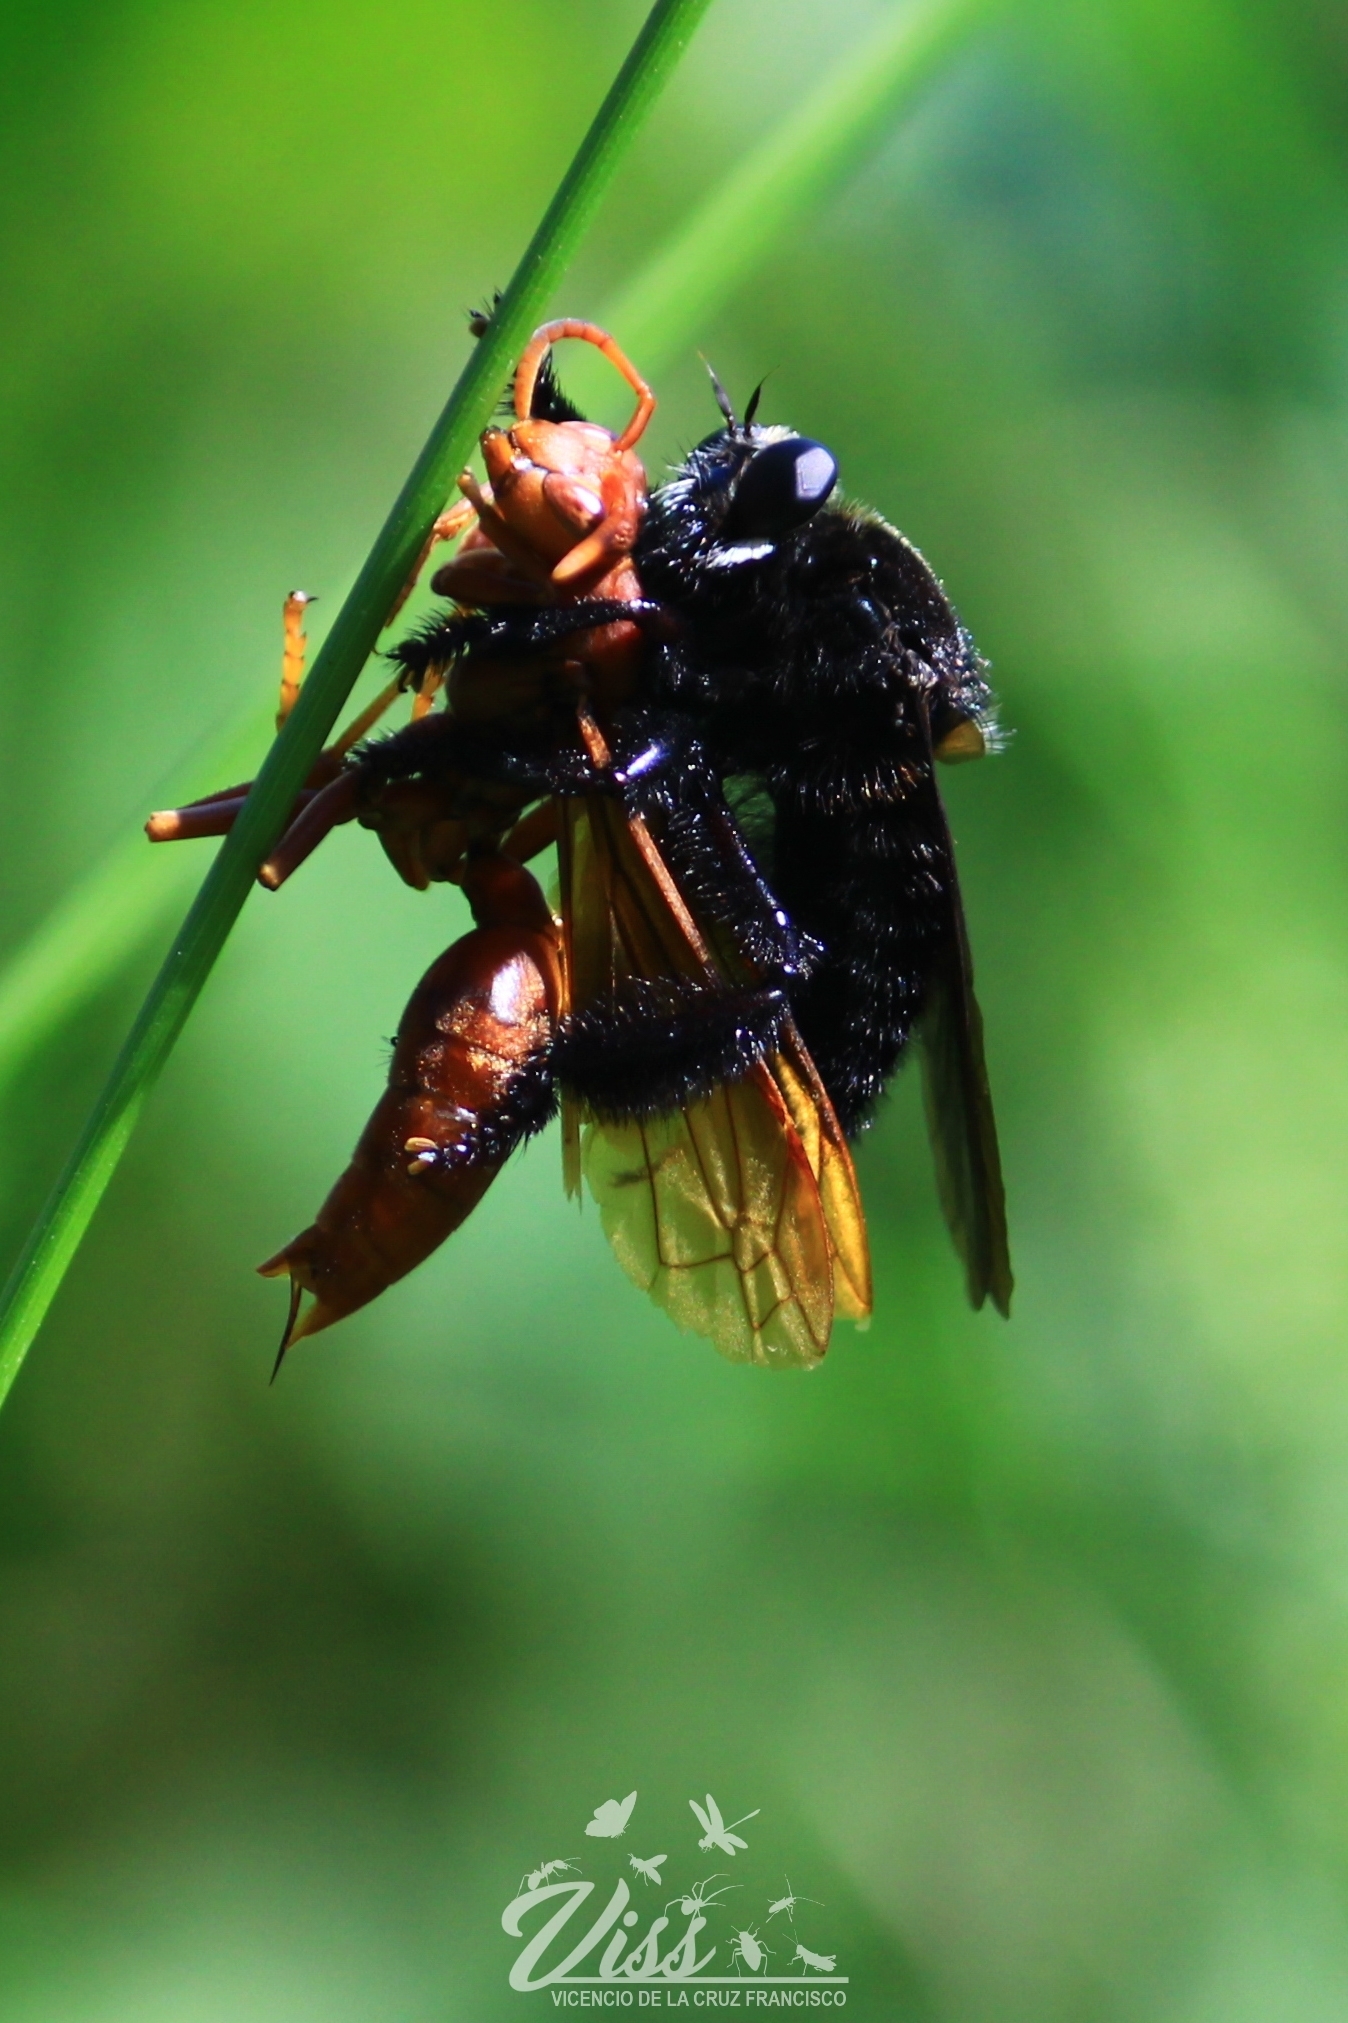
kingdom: Animalia
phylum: Arthropoda
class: Insecta
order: Diptera
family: Asilidae
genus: Mallophora
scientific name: Mallophora leschenaultii
